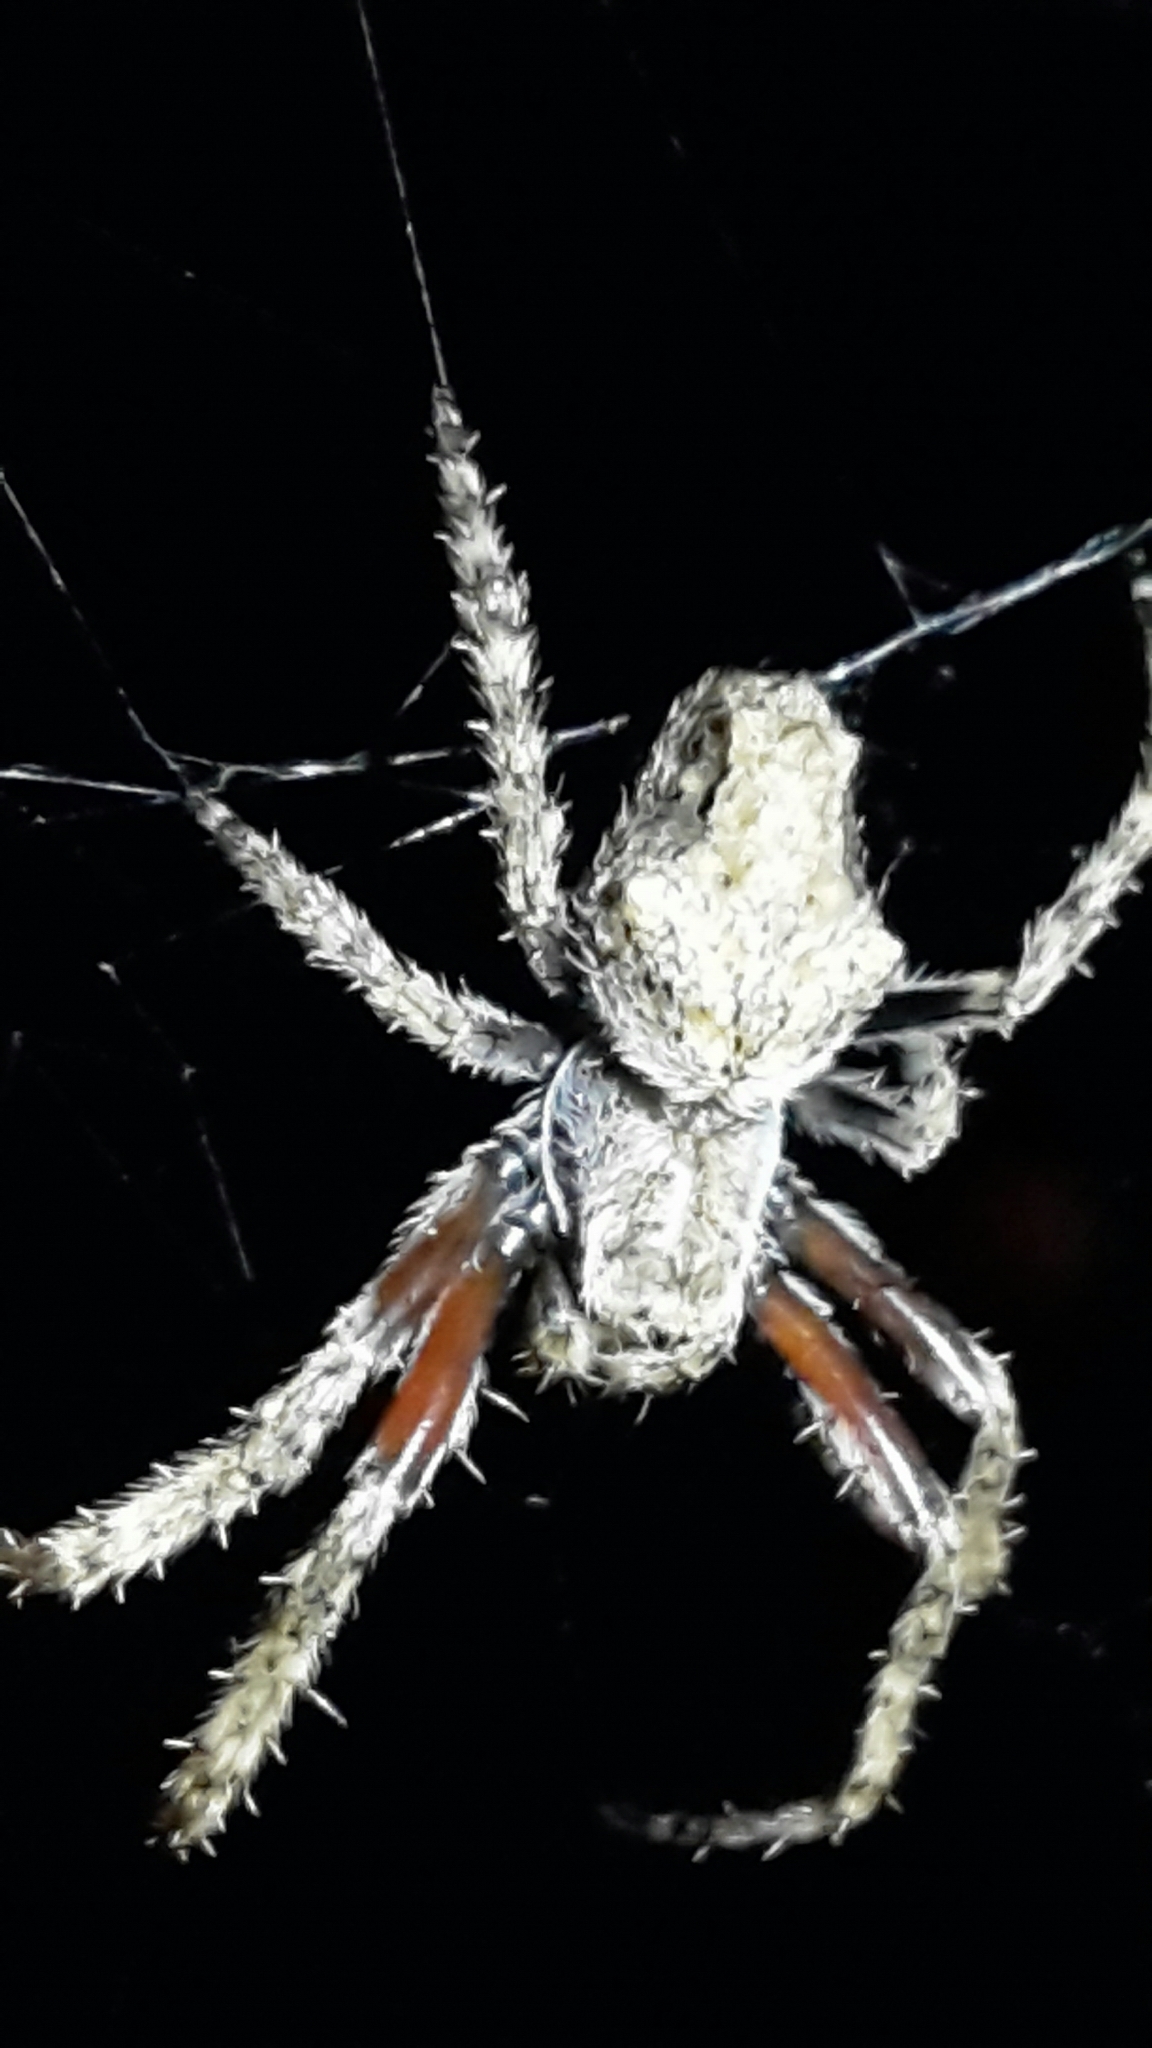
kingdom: Animalia
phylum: Arthropoda
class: Arachnida
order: Araneae
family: Araneidae
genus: Eriophora
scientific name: Eriophora pustulosa
